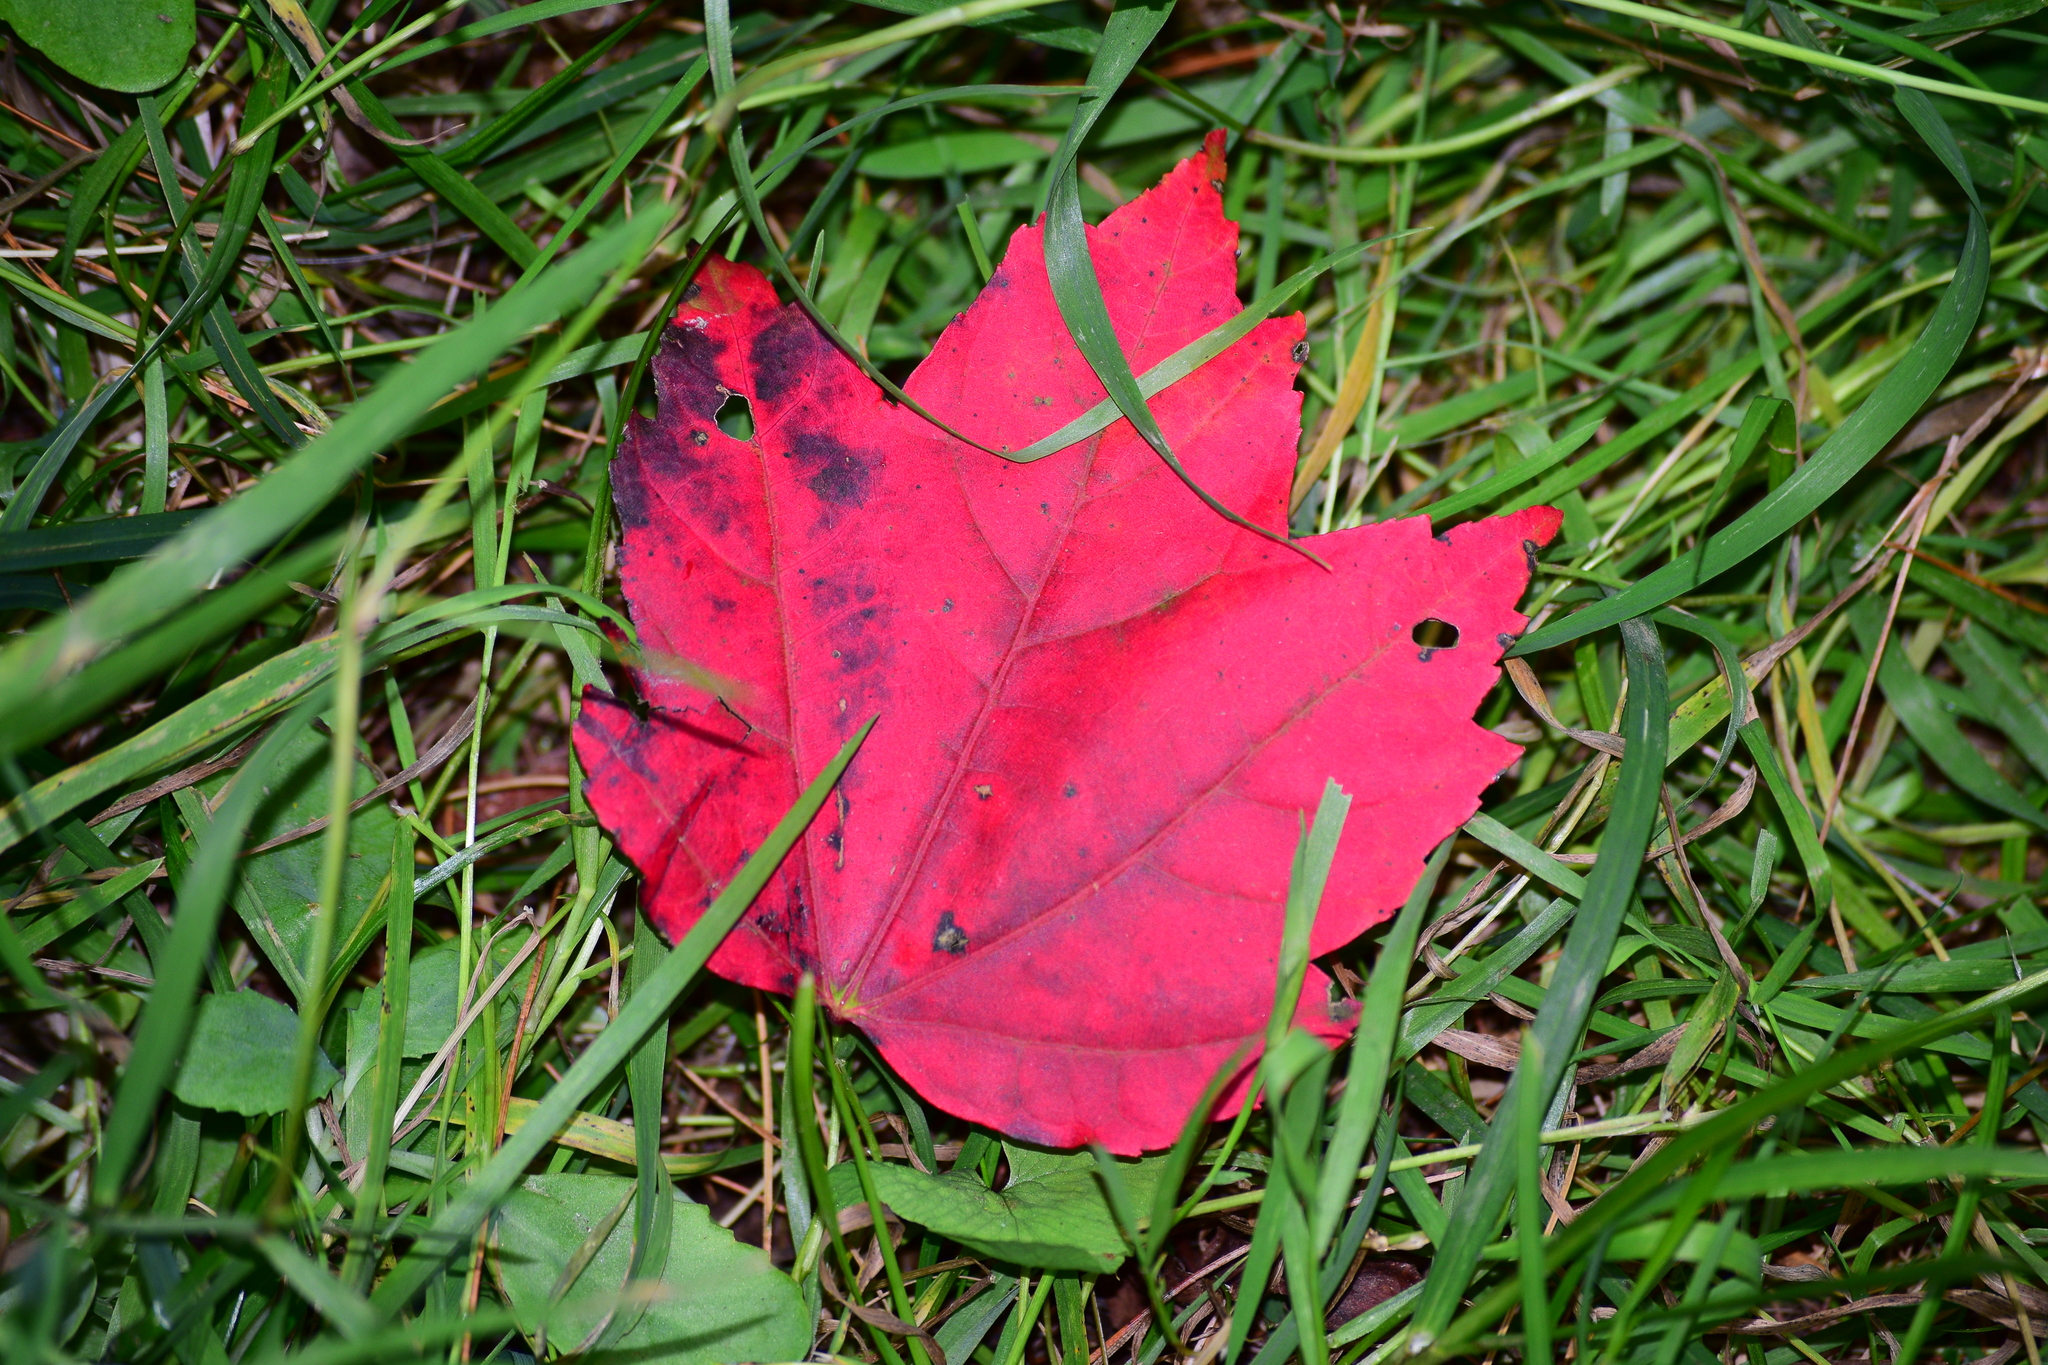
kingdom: Plantae
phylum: Tracheophyta
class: Magnoliopsida
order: Sapindales
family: Sapindaceae
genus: Acer
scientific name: Acer rubrum
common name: Red maple
